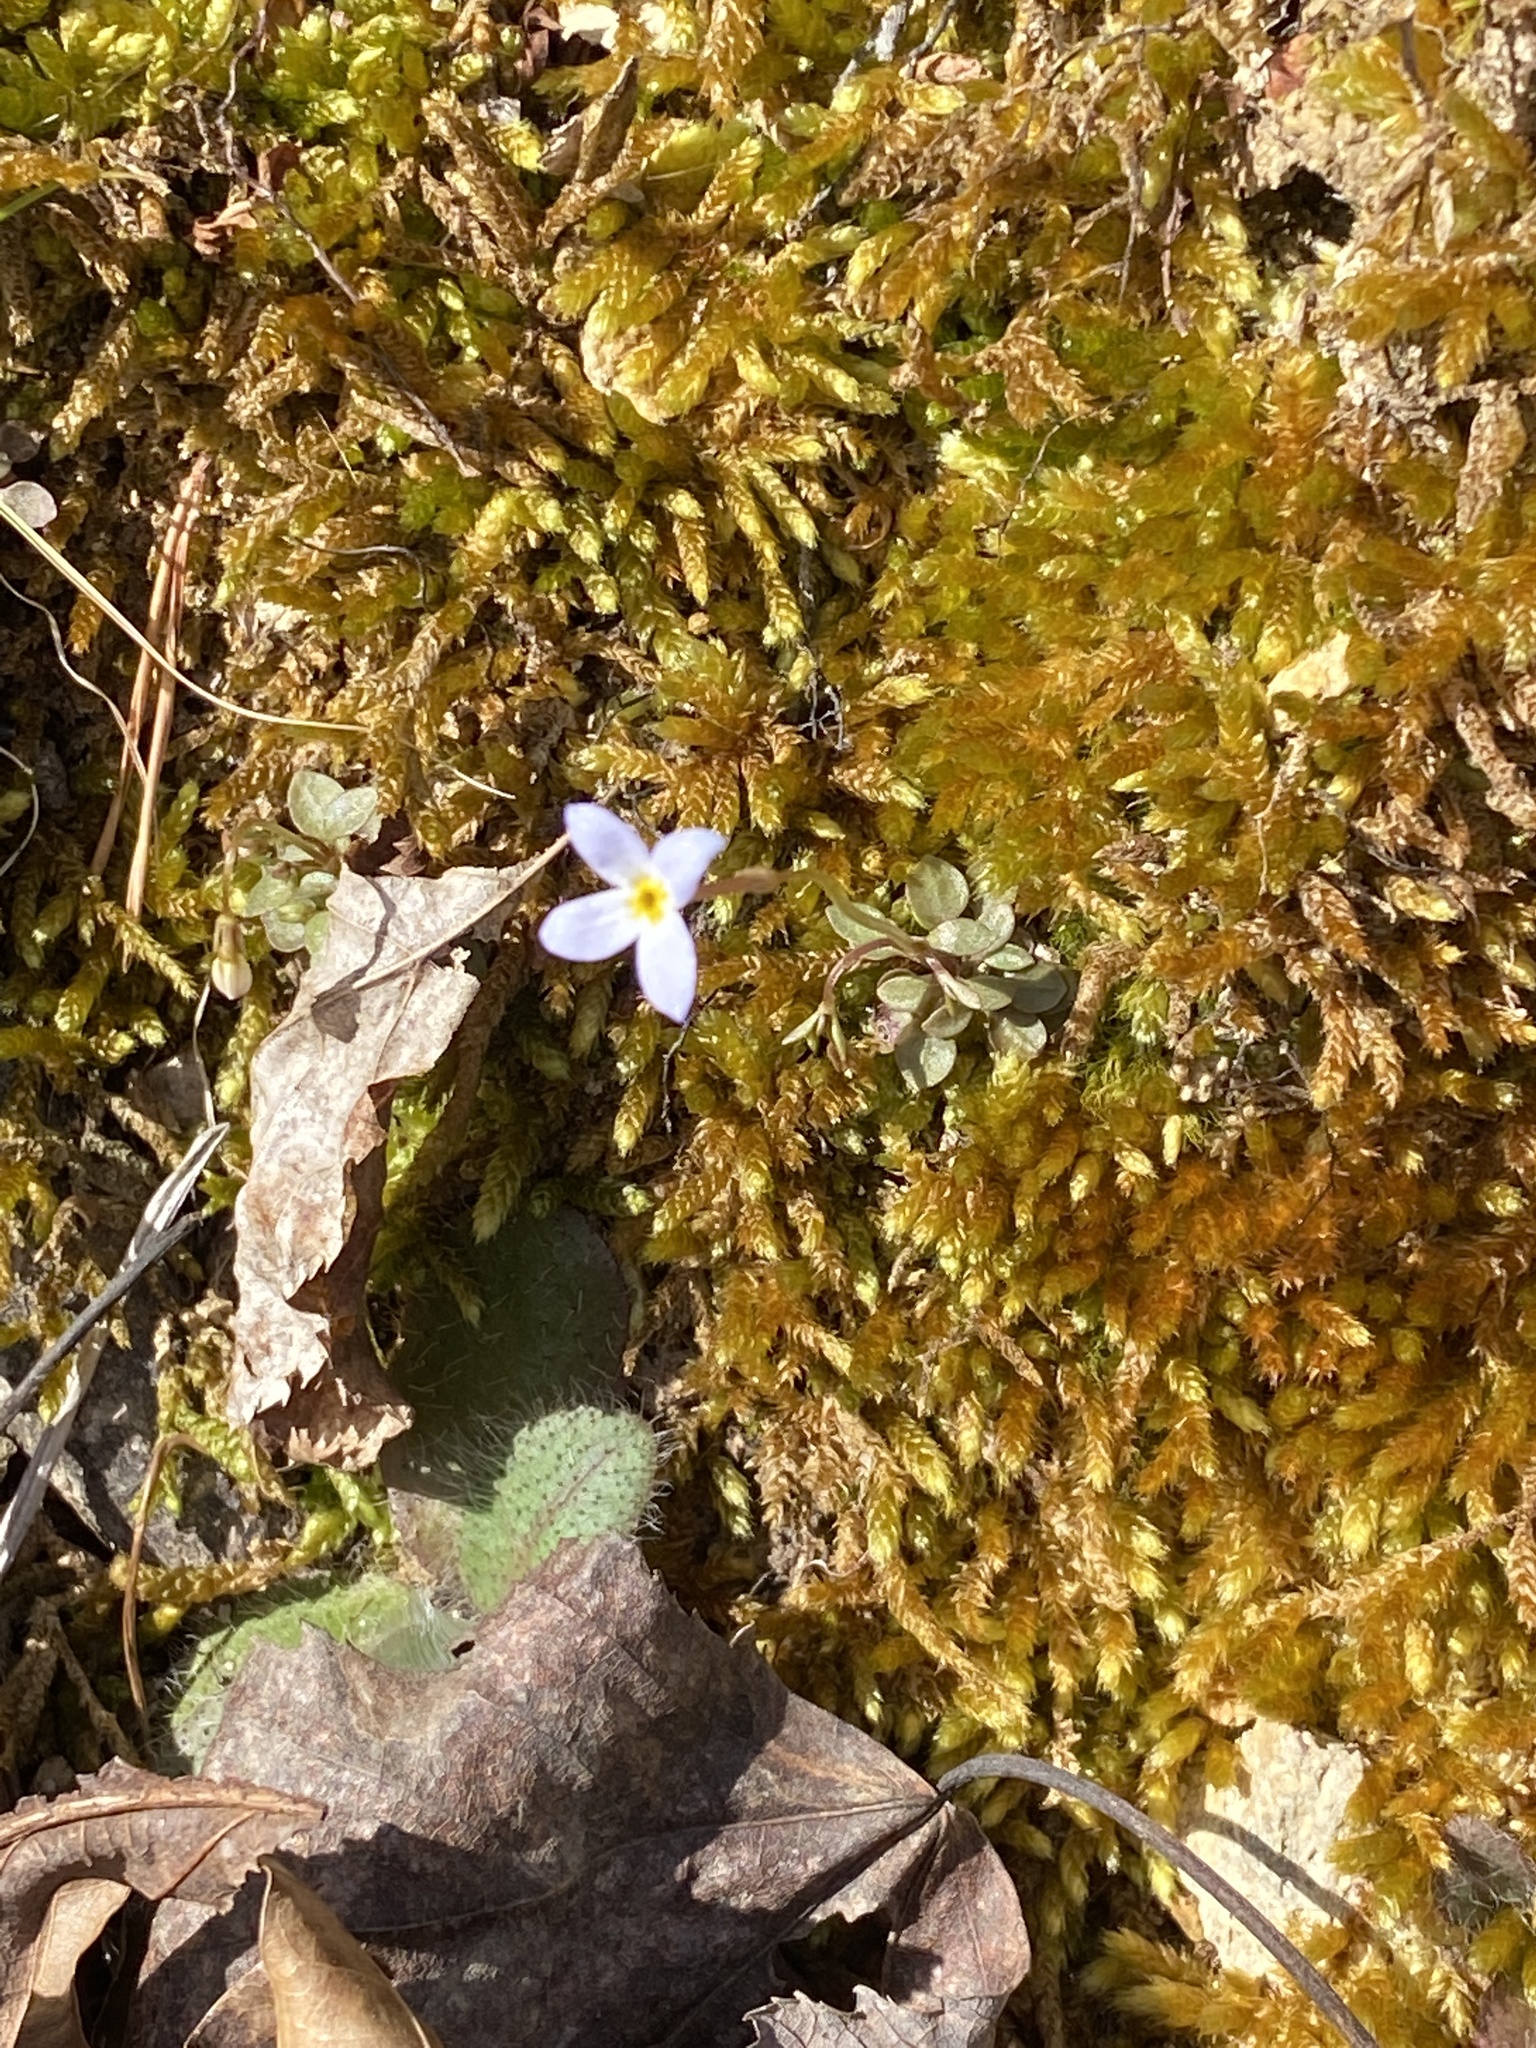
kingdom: Plantae
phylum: Tracheophyta
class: Magnoliopsida
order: Gentianales
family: Rubiaceae
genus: Houstonia
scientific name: Houstonia caerulea
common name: Bluets
